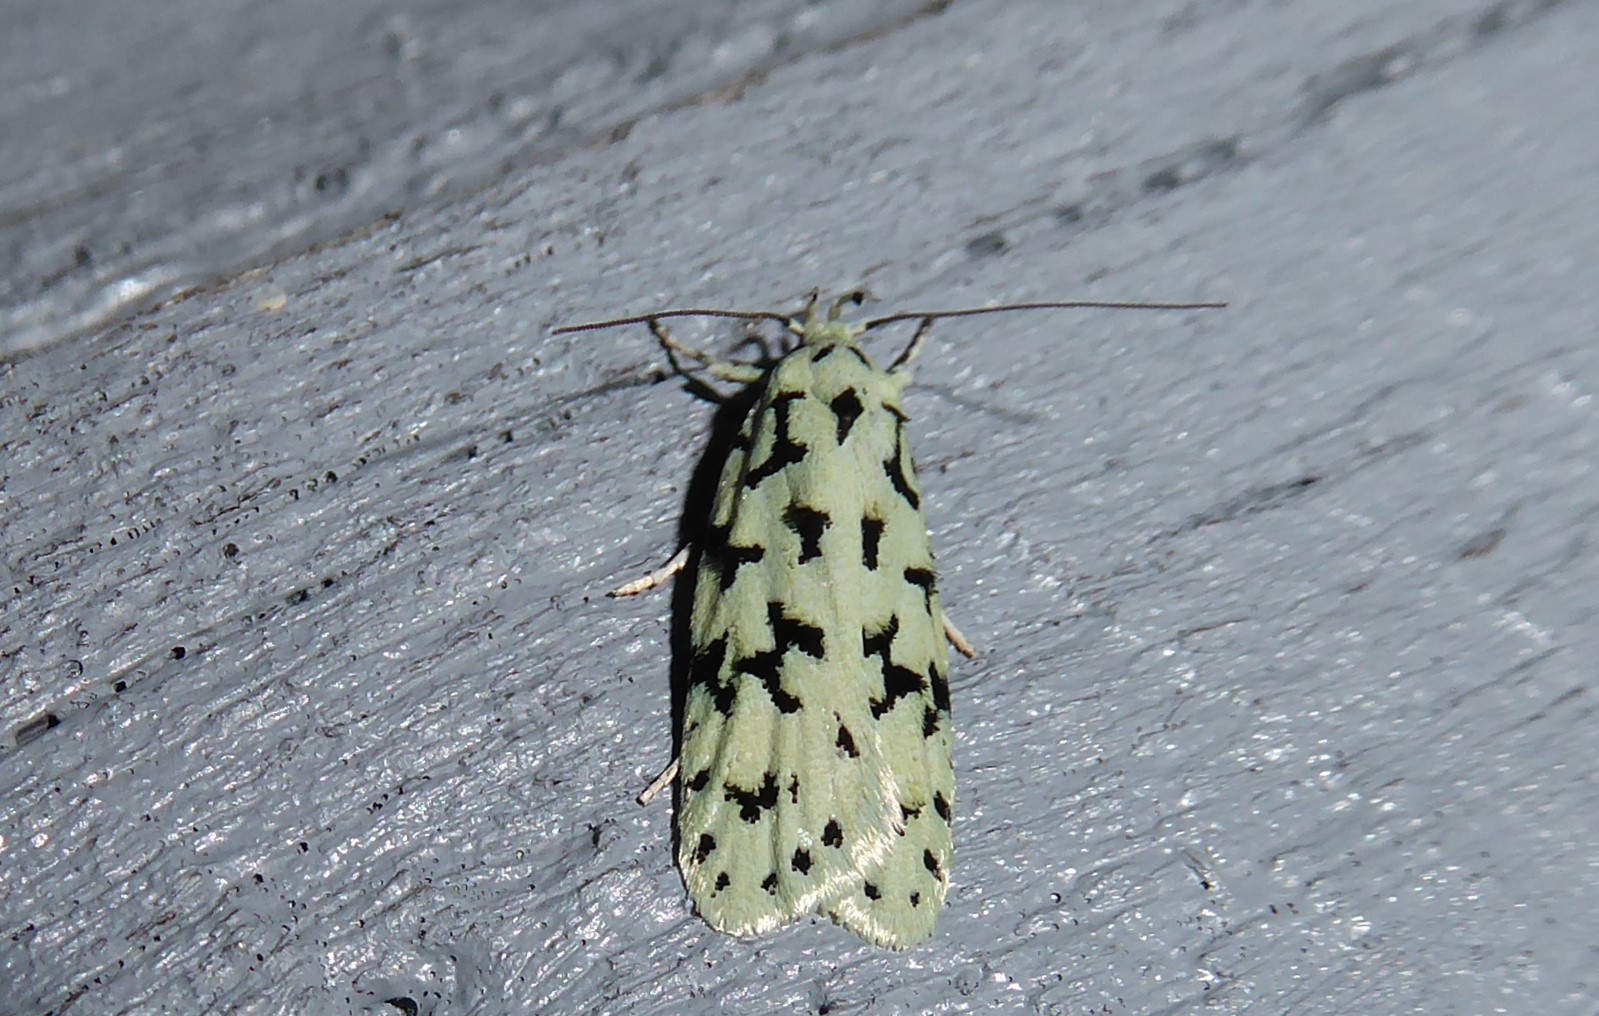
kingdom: Animalia
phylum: Arthropoda
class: Insecta
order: Lepidoptera
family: Oecophoridae
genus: Izatha
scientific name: Izatha huttoni
